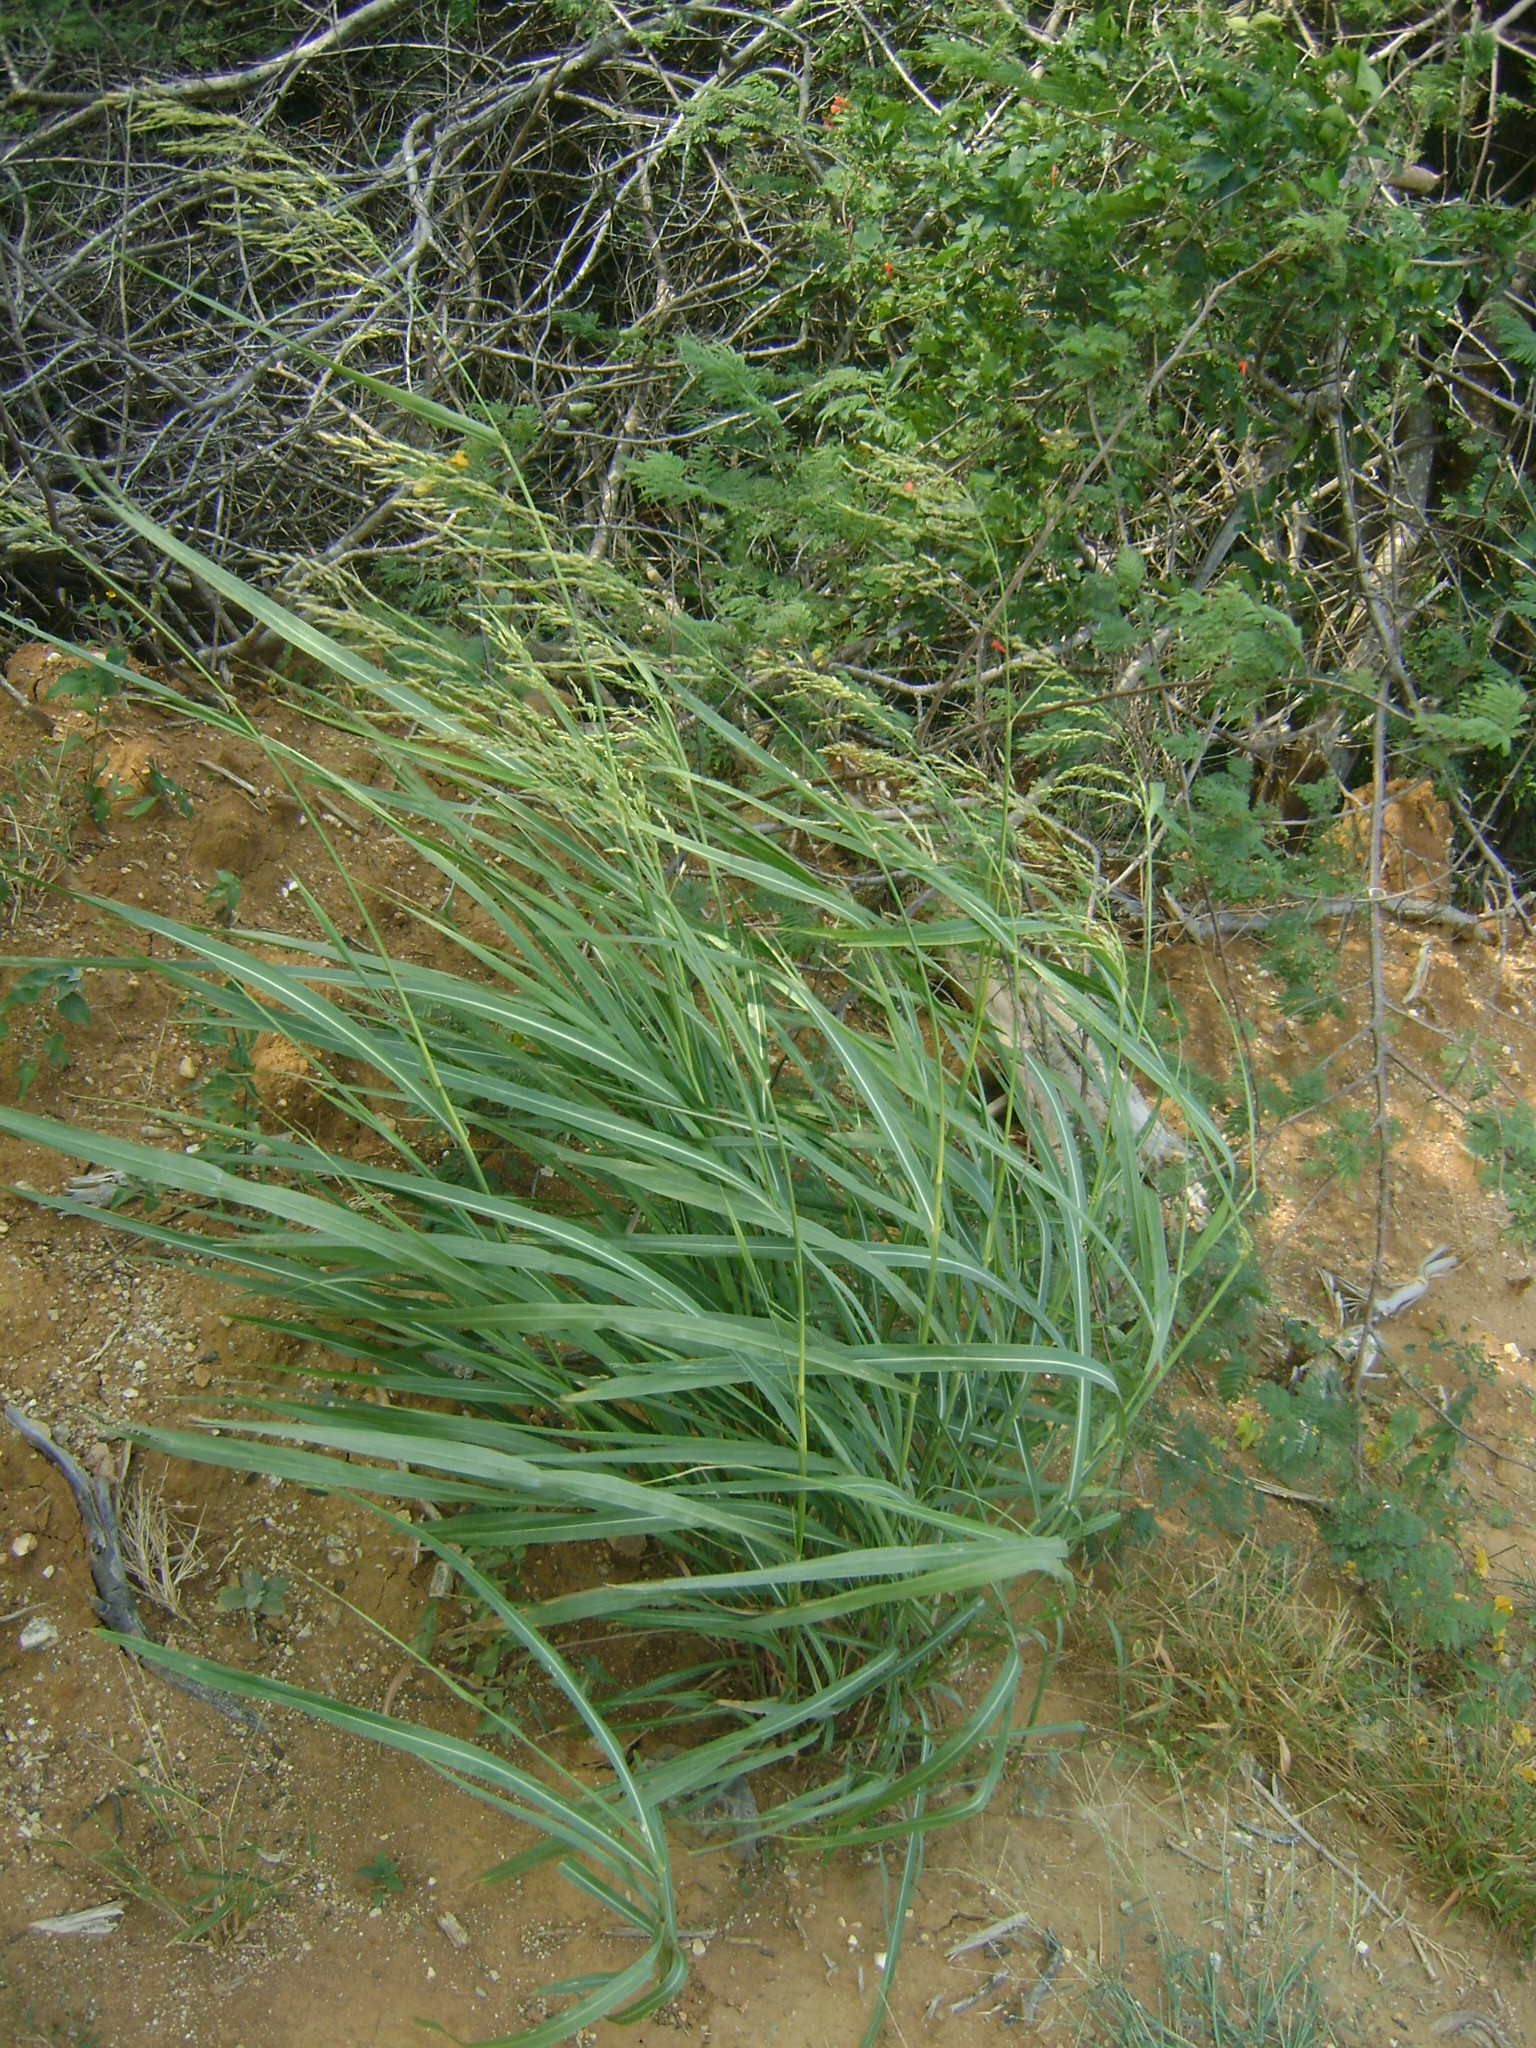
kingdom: Plantae
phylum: Tracheophyta
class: Liliopsida
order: Poales
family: Poaceae
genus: Oryza
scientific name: Oryza latifolia
